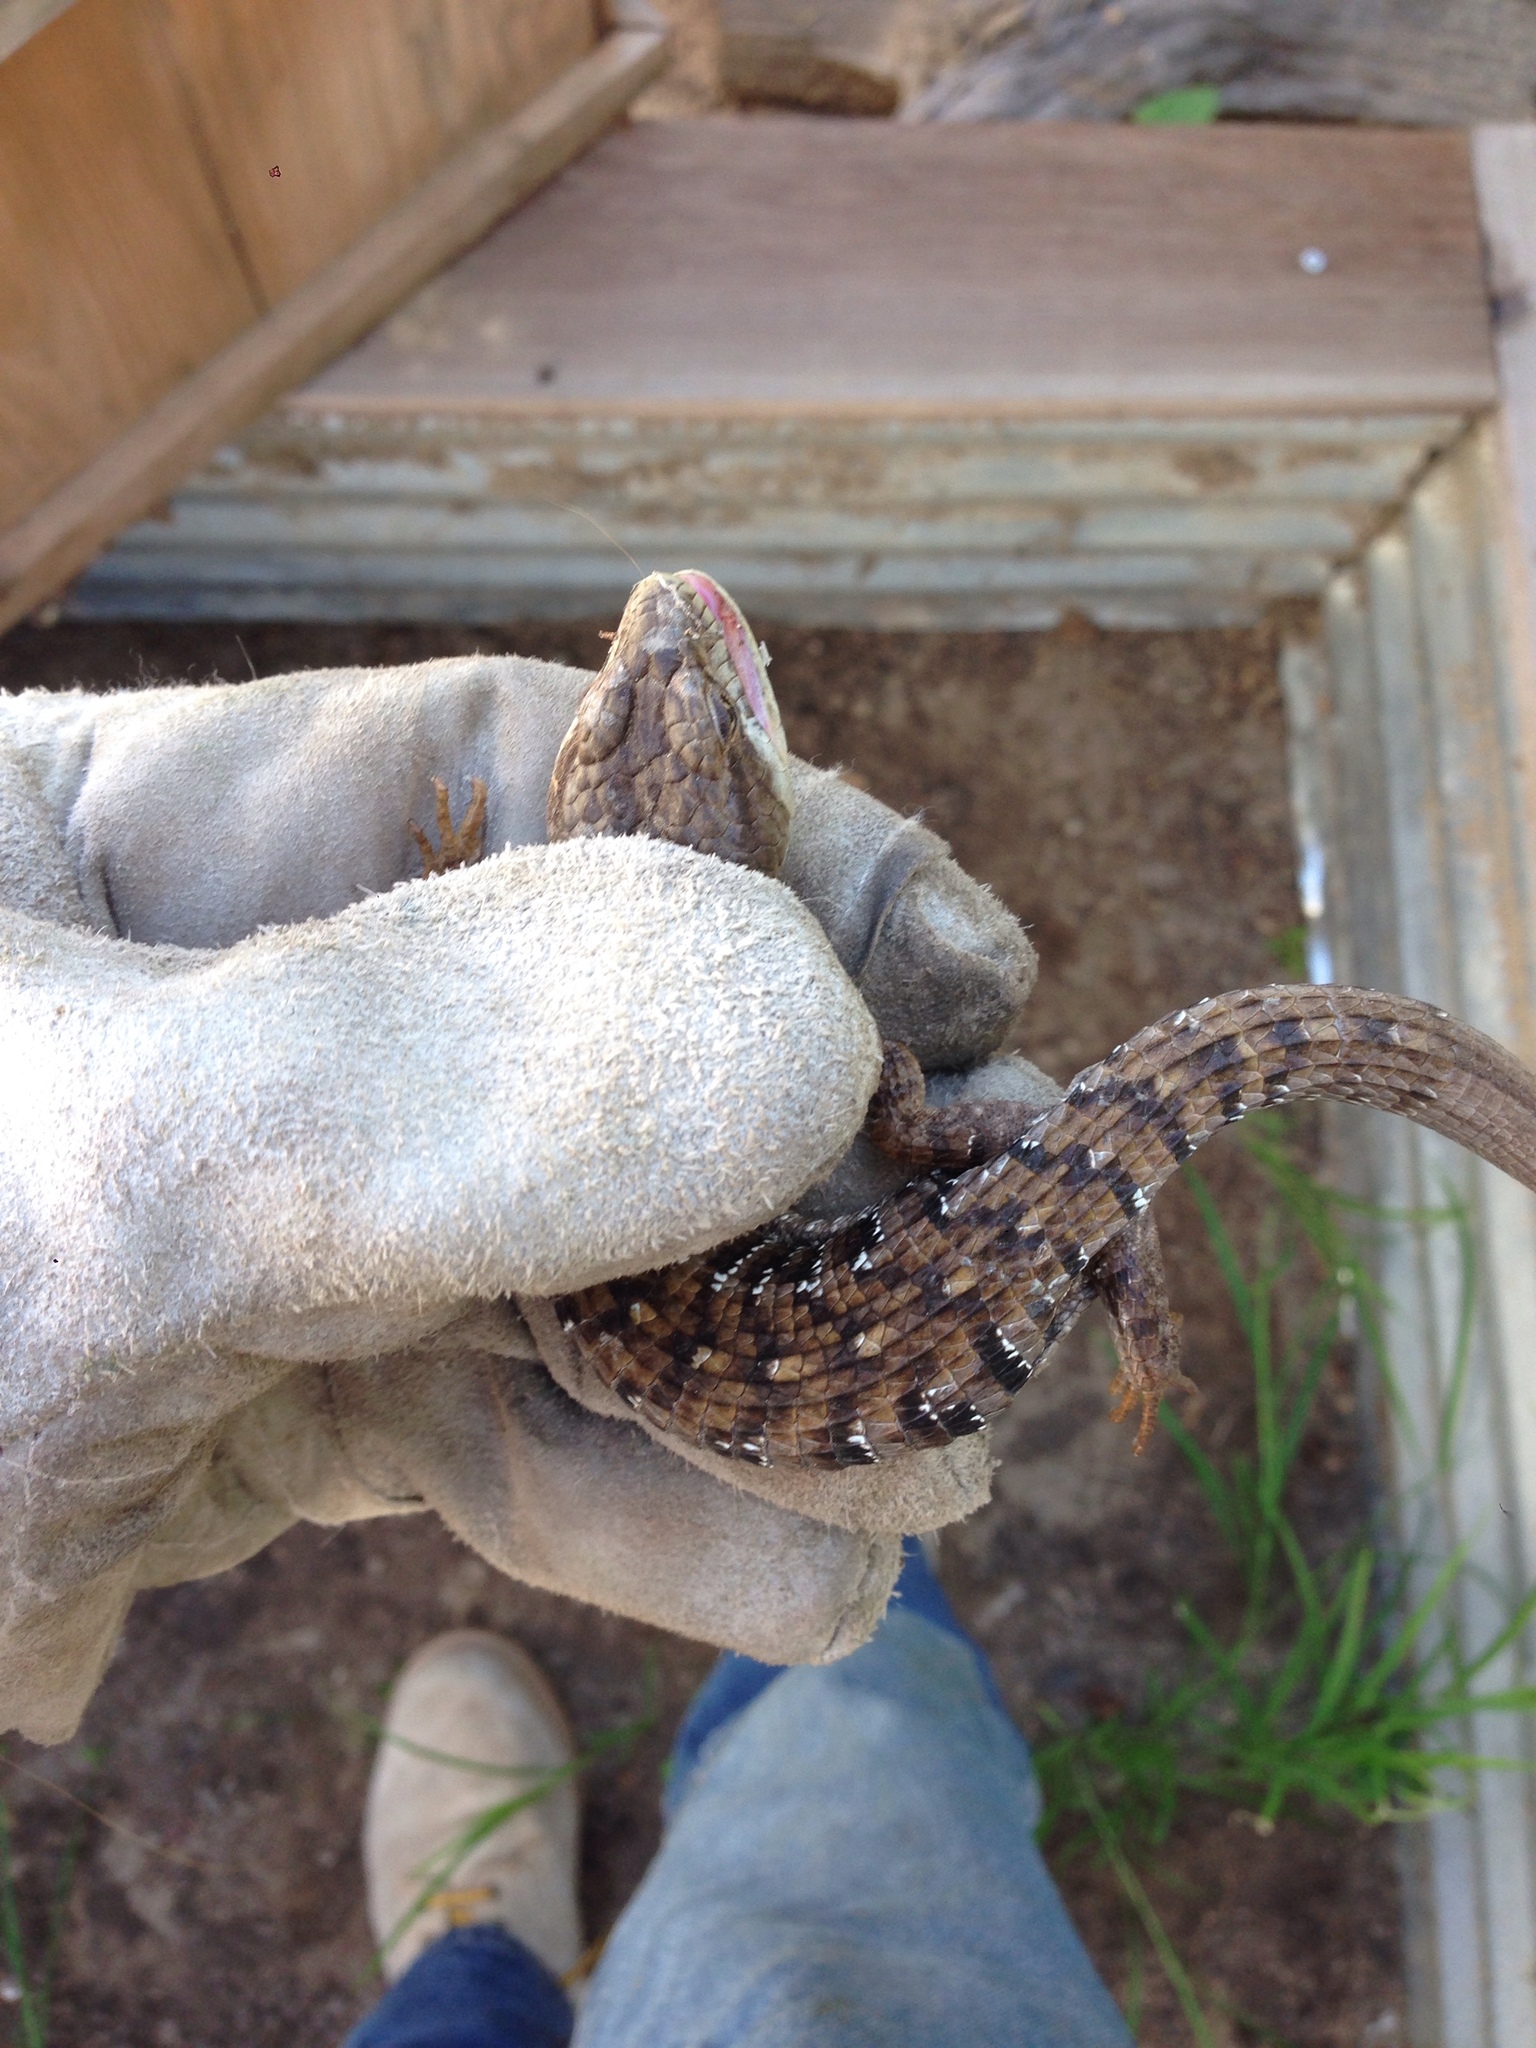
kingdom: Animalia
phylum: Chordata
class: Squamata
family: Anguidae
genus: Elgaria
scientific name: Elgaria multicarinata
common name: Southern alligator lizard
